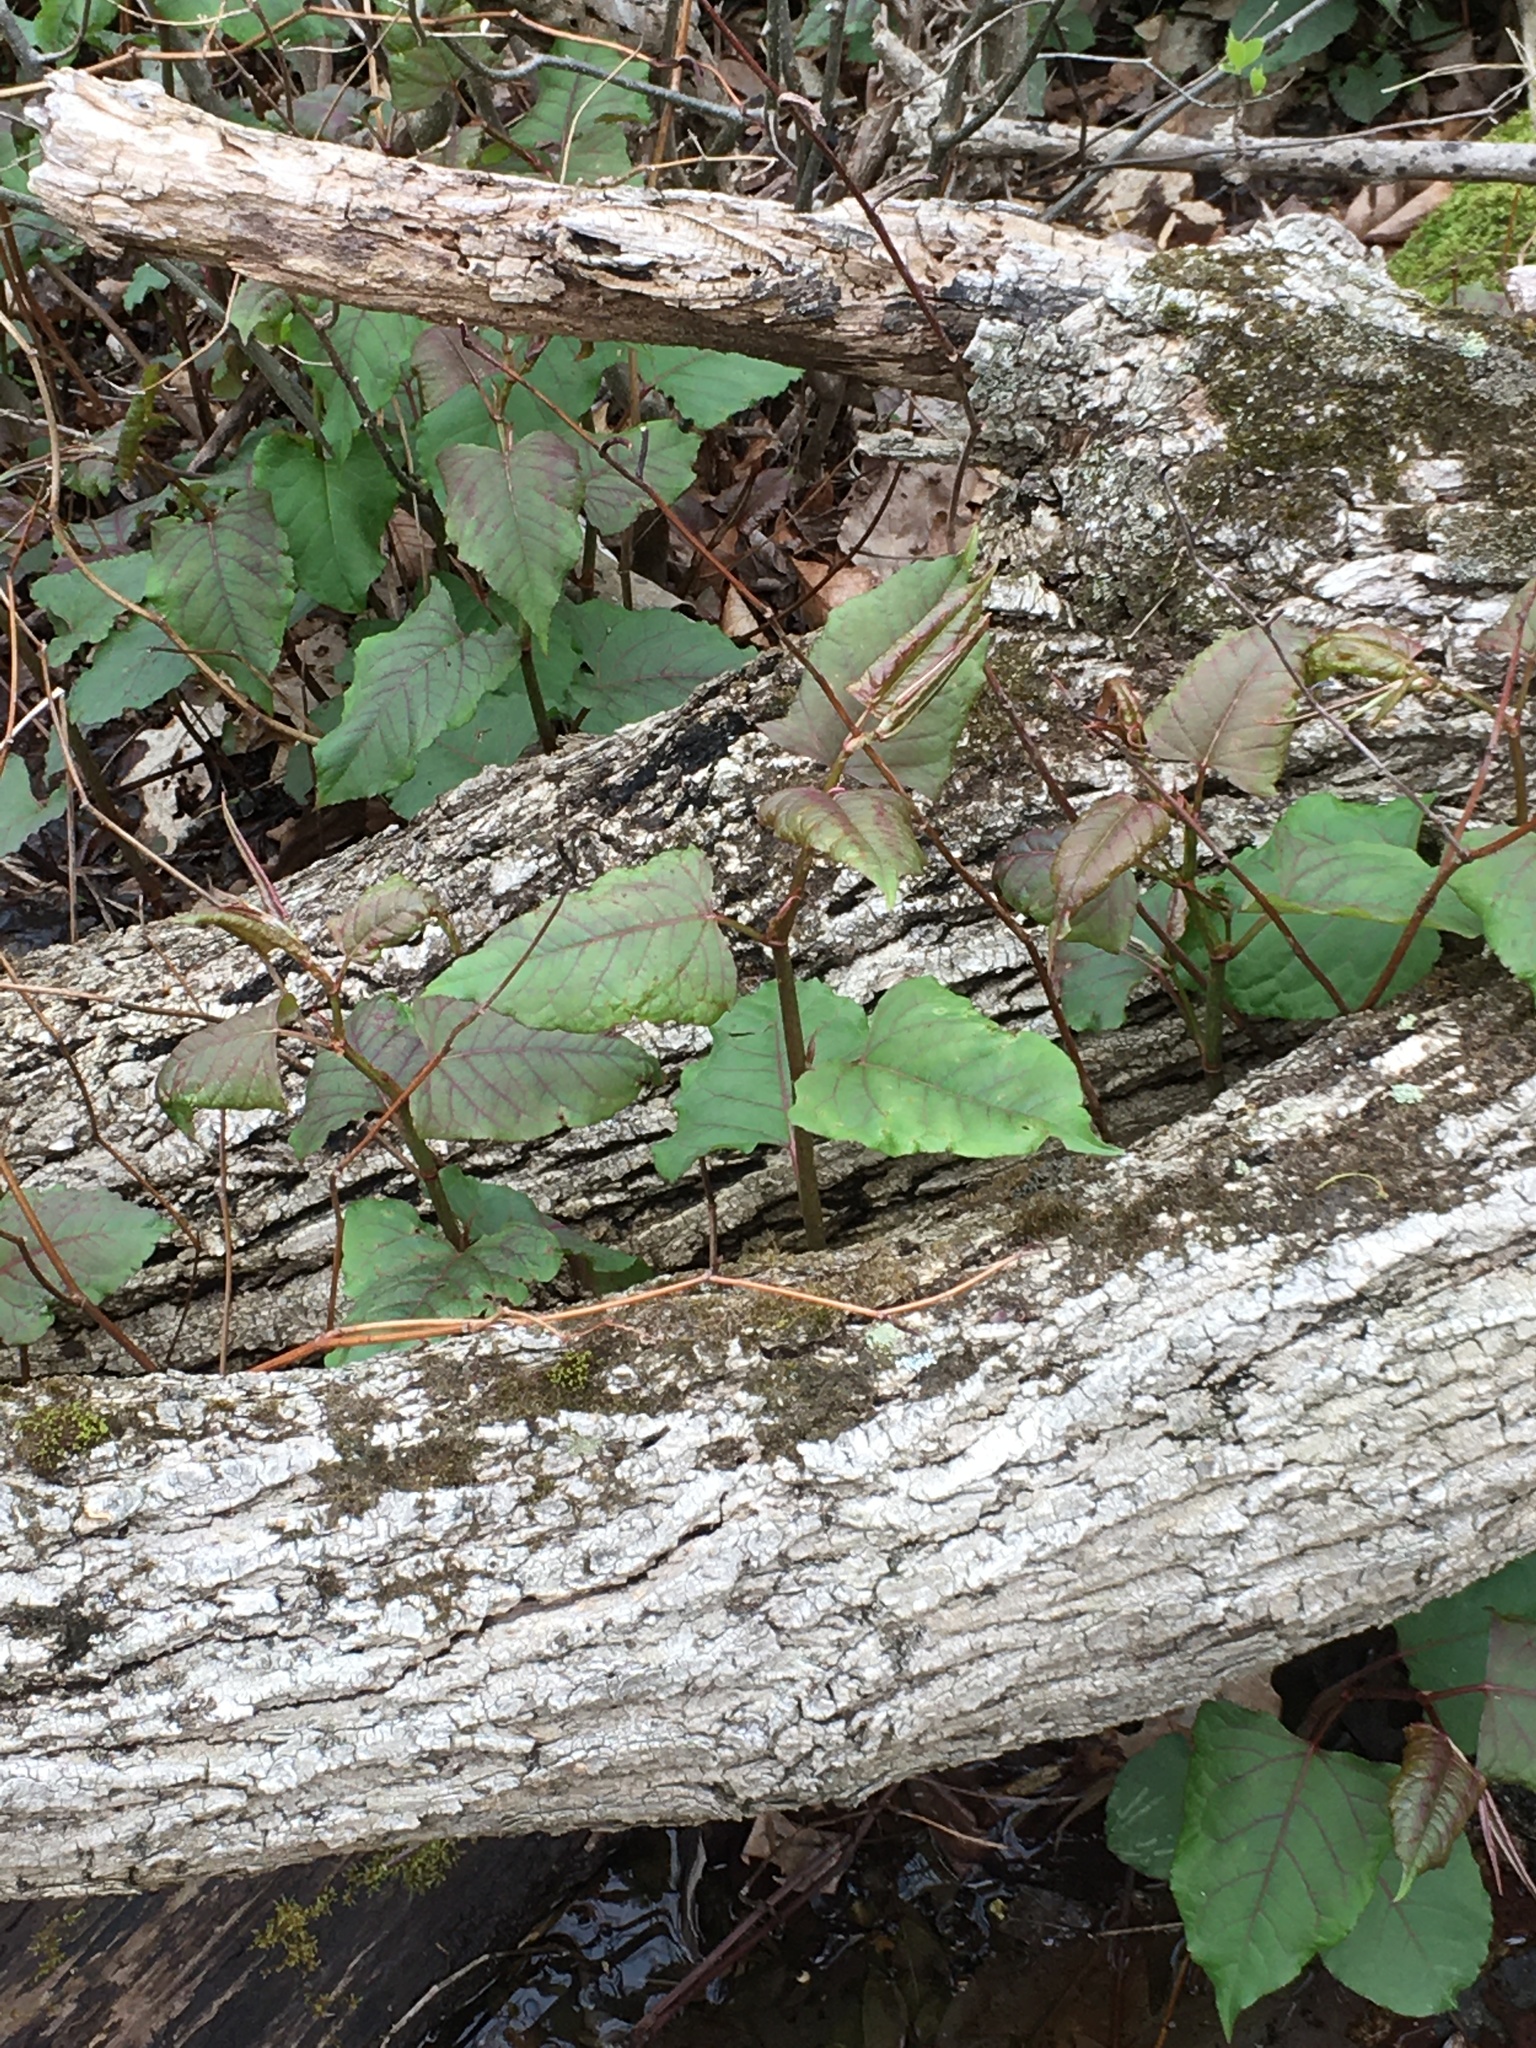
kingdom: Plantae
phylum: Tracheophyta
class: Magnoliopsida
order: Caryophyllales
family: Polygonaceae
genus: Reynoutria
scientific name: Reynoutria japonica
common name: Japanese knotweed
